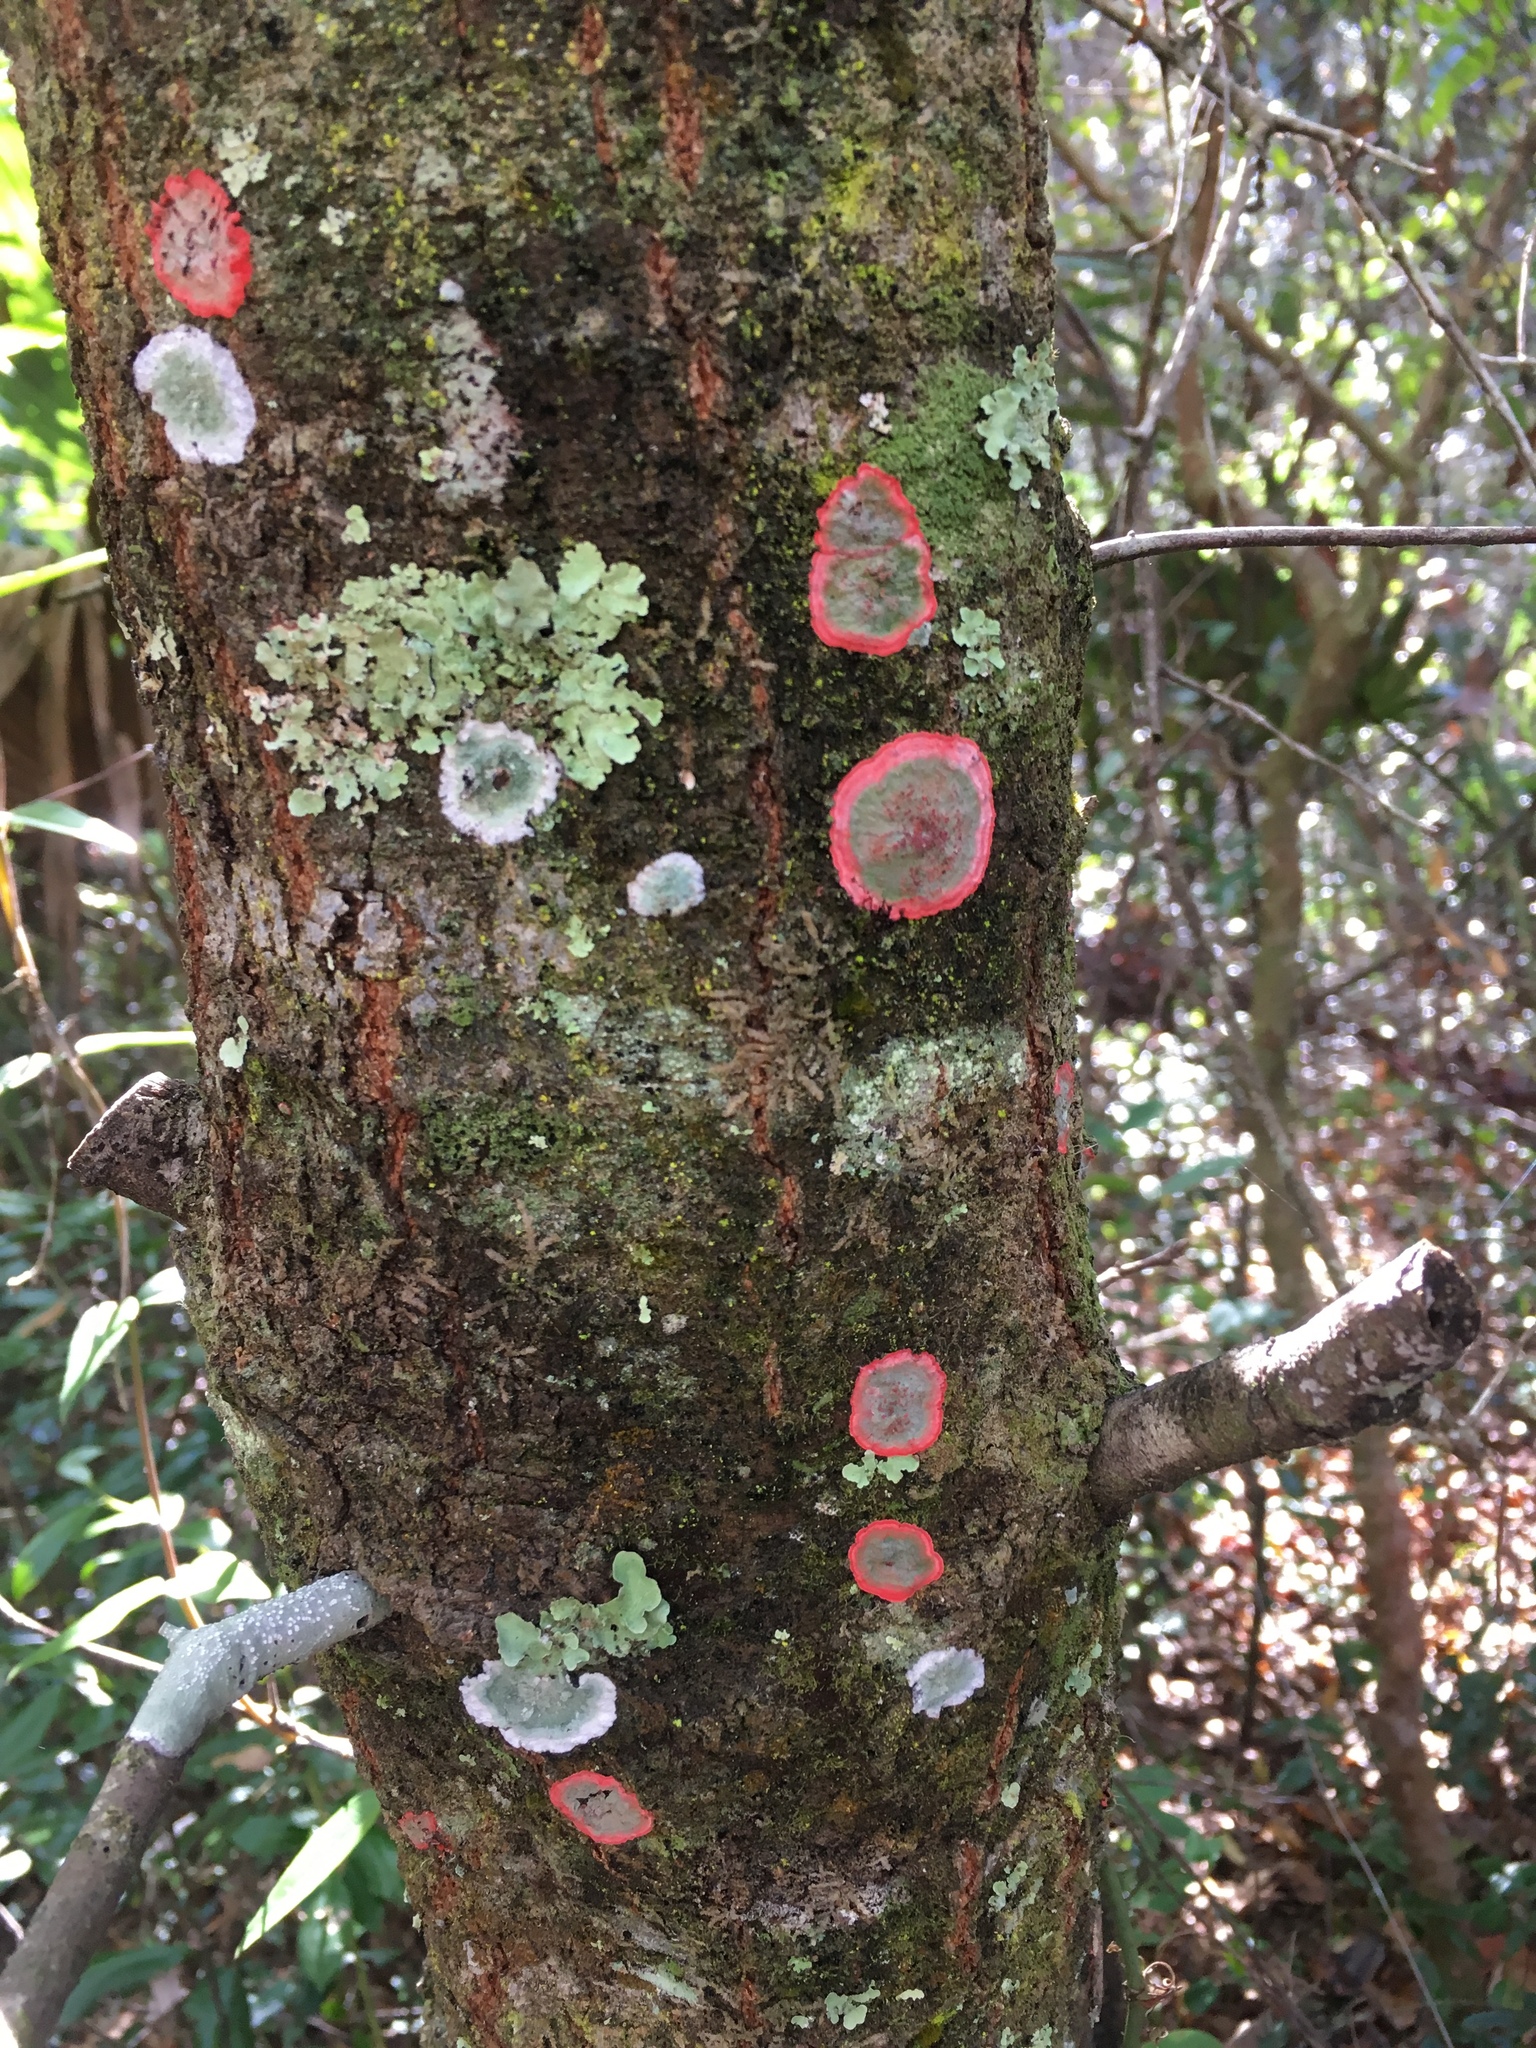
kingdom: Fungi
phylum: Ascomycota
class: Arthoniomycetes
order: Arthoniales
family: Arthoniaceae
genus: Herpothallon
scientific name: Herpothallon rubrocinctum
